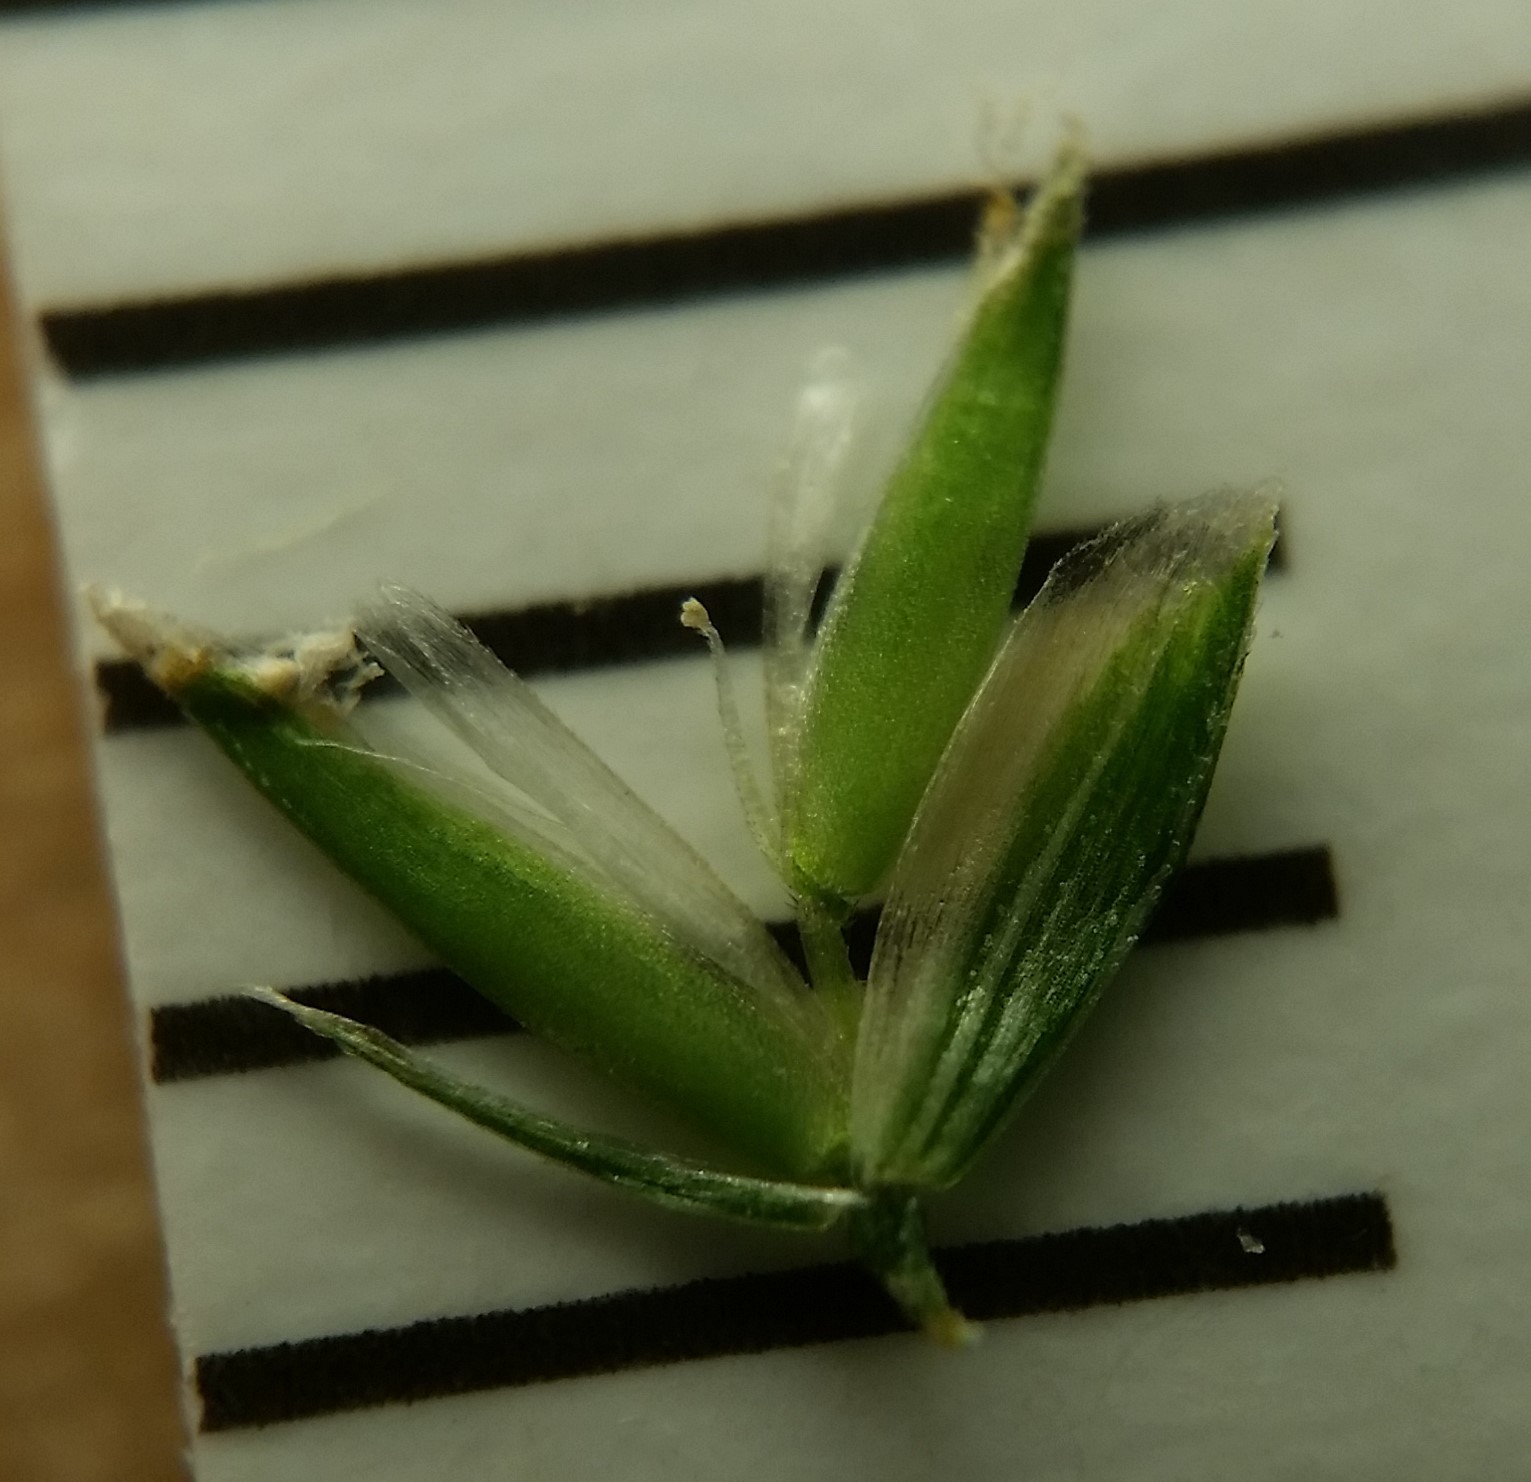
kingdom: Plantae
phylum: Tracheophyta
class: Liliopsida
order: Poales
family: Poaceae
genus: Sphenopholis
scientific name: Sphenopholis intermedia
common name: Intermediate eaton's grass
